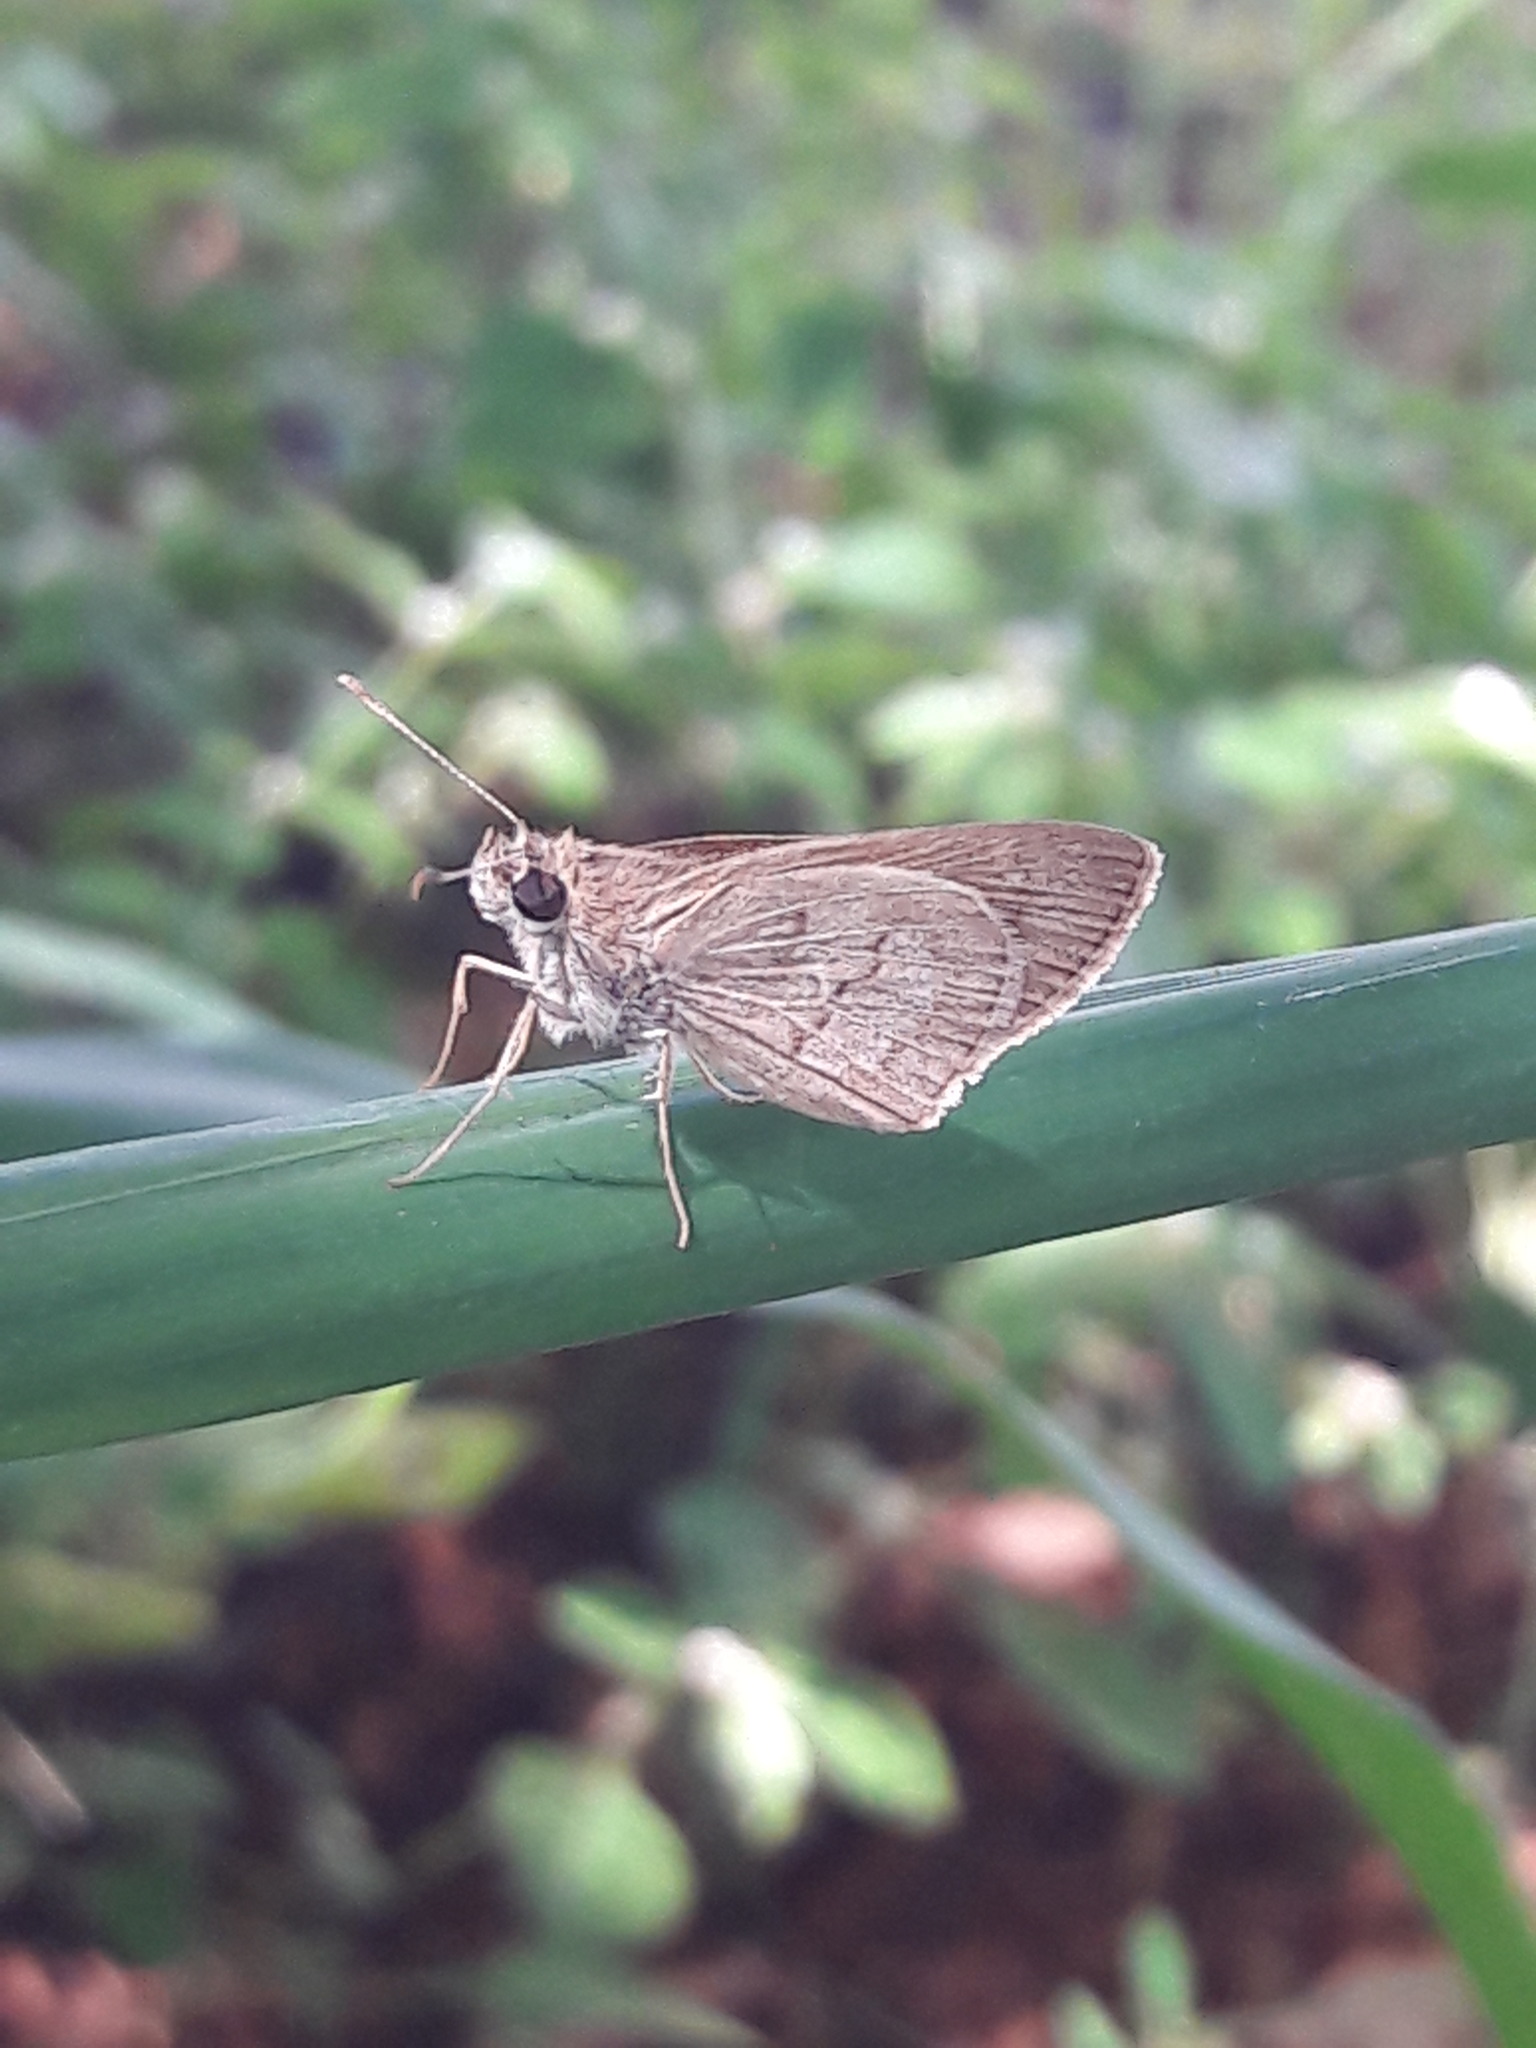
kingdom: Animalia
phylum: Arthropoda
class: Insecta
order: Lepidoptera
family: Hesperiidae
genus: Cymaenes
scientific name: Cymaenes gisca
